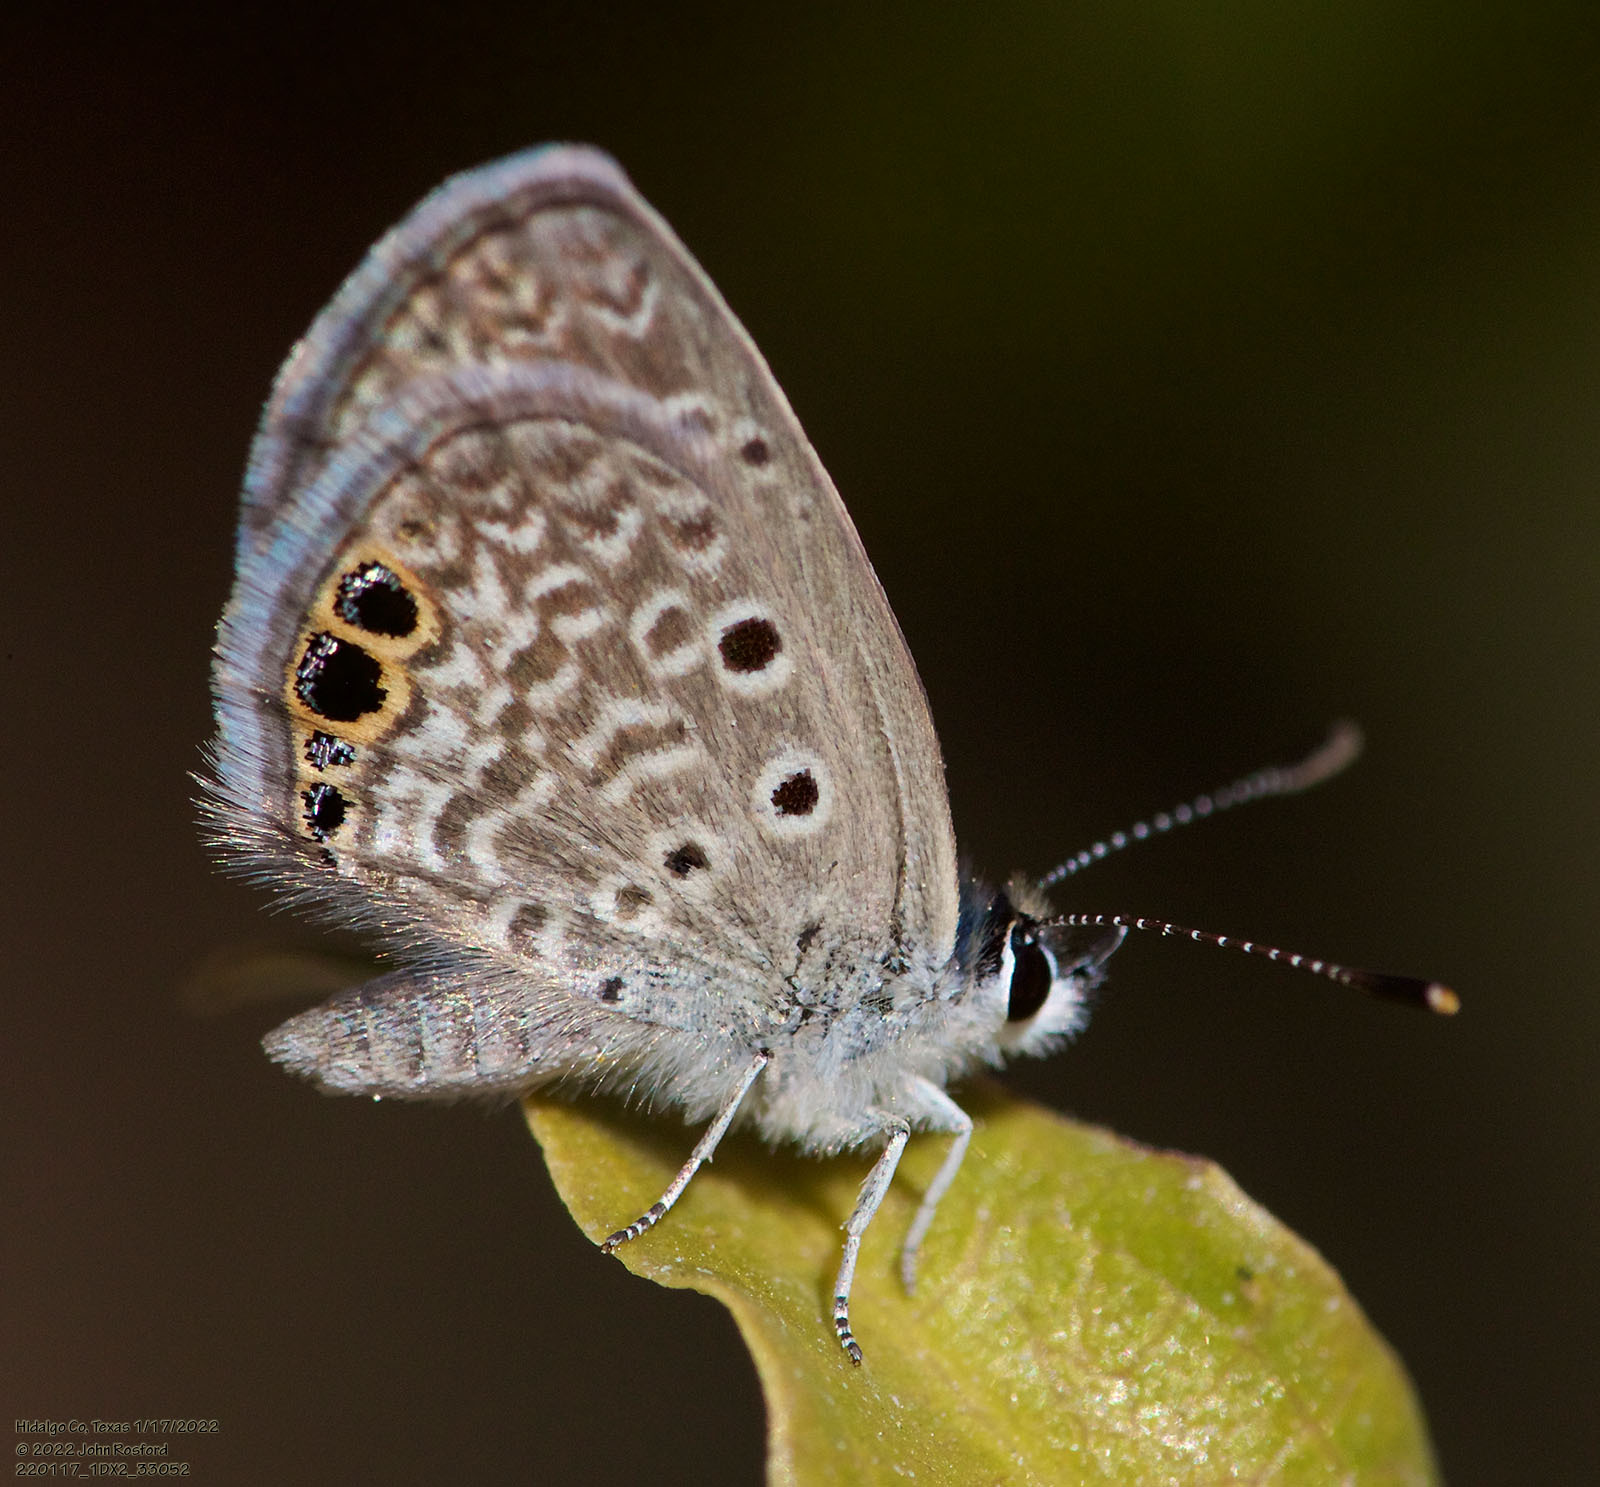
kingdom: Animalia
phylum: Arthropoda
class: Insecta
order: Lepidoptera
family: Lycaenidae
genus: Hemiargus
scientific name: Hemiargus ceraunus
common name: Ceraunus blue
